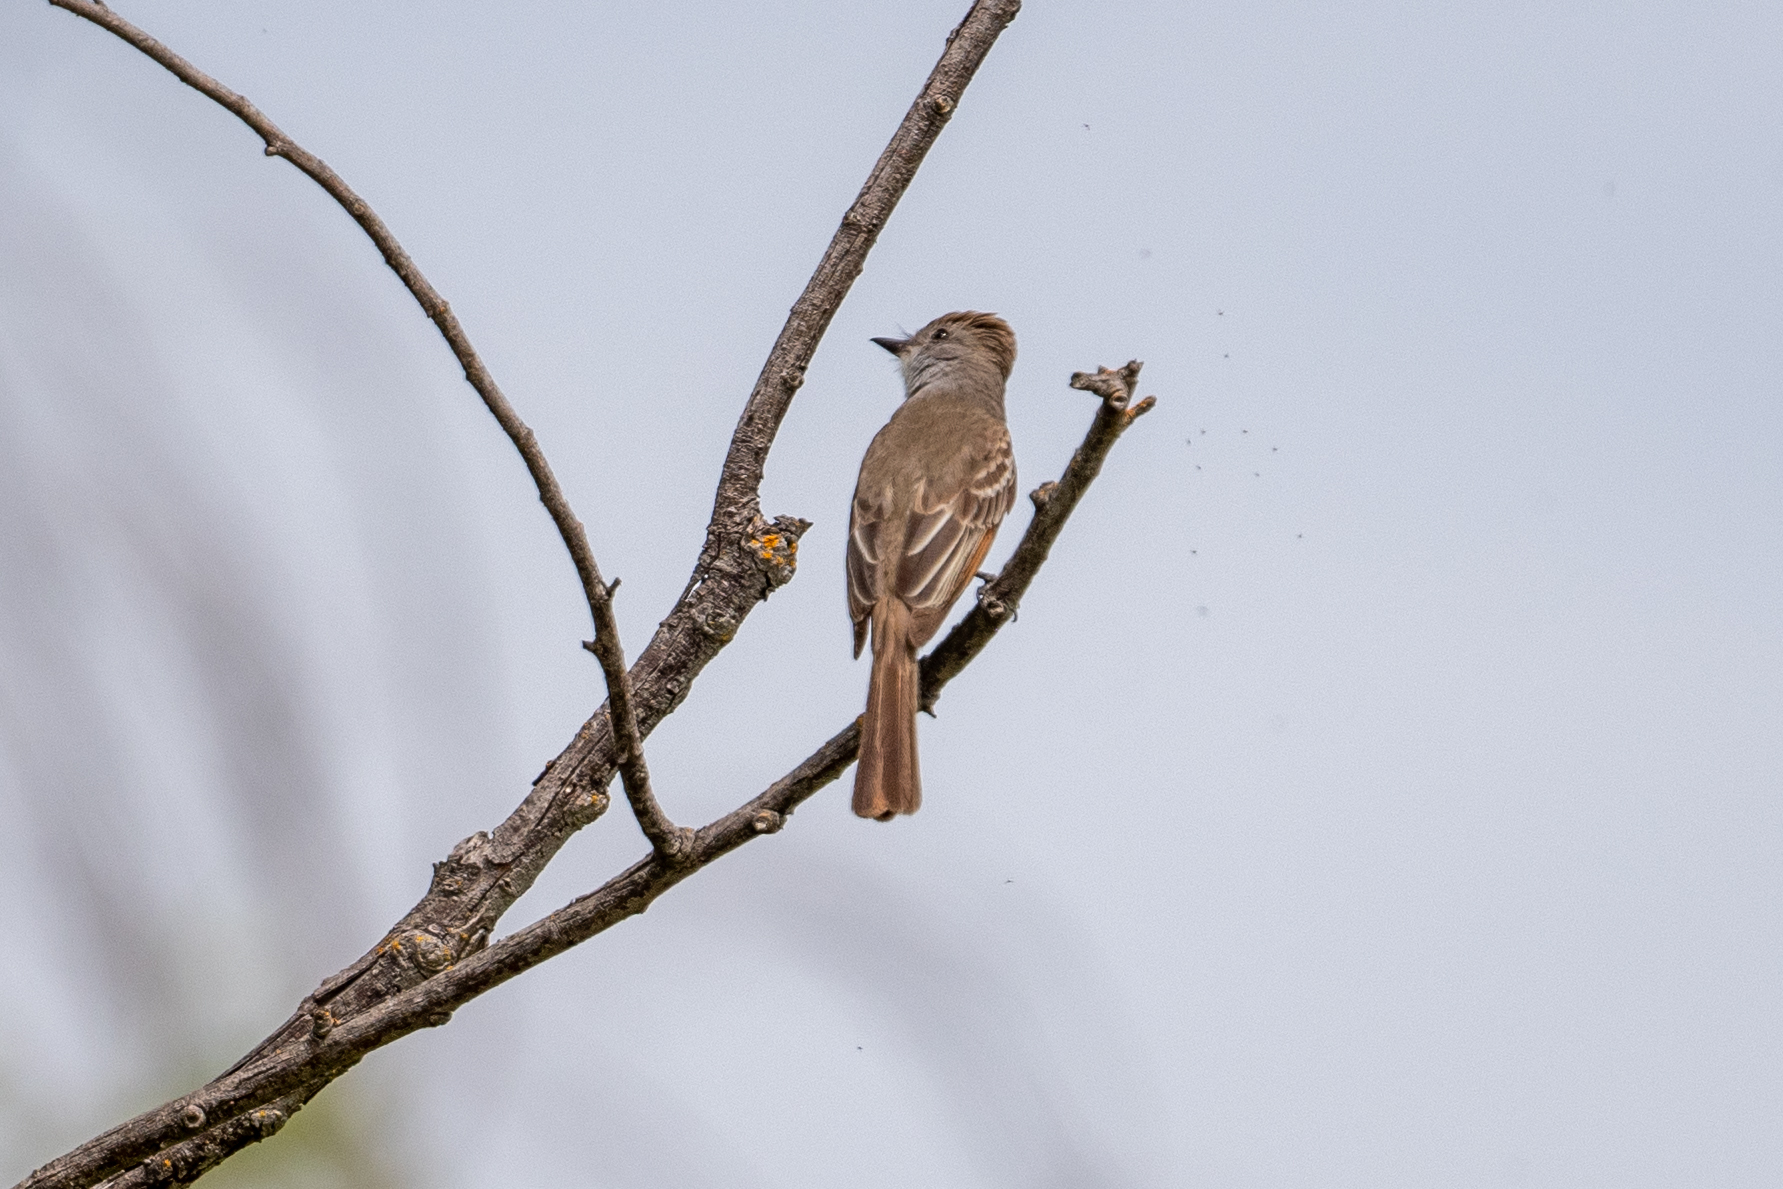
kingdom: Animalia
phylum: Chordata
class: Aves
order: Passeriformes
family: Tyrannidae
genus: Myiarchus
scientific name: Myiarchus cinerascens
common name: Ash-throated flycatcher
